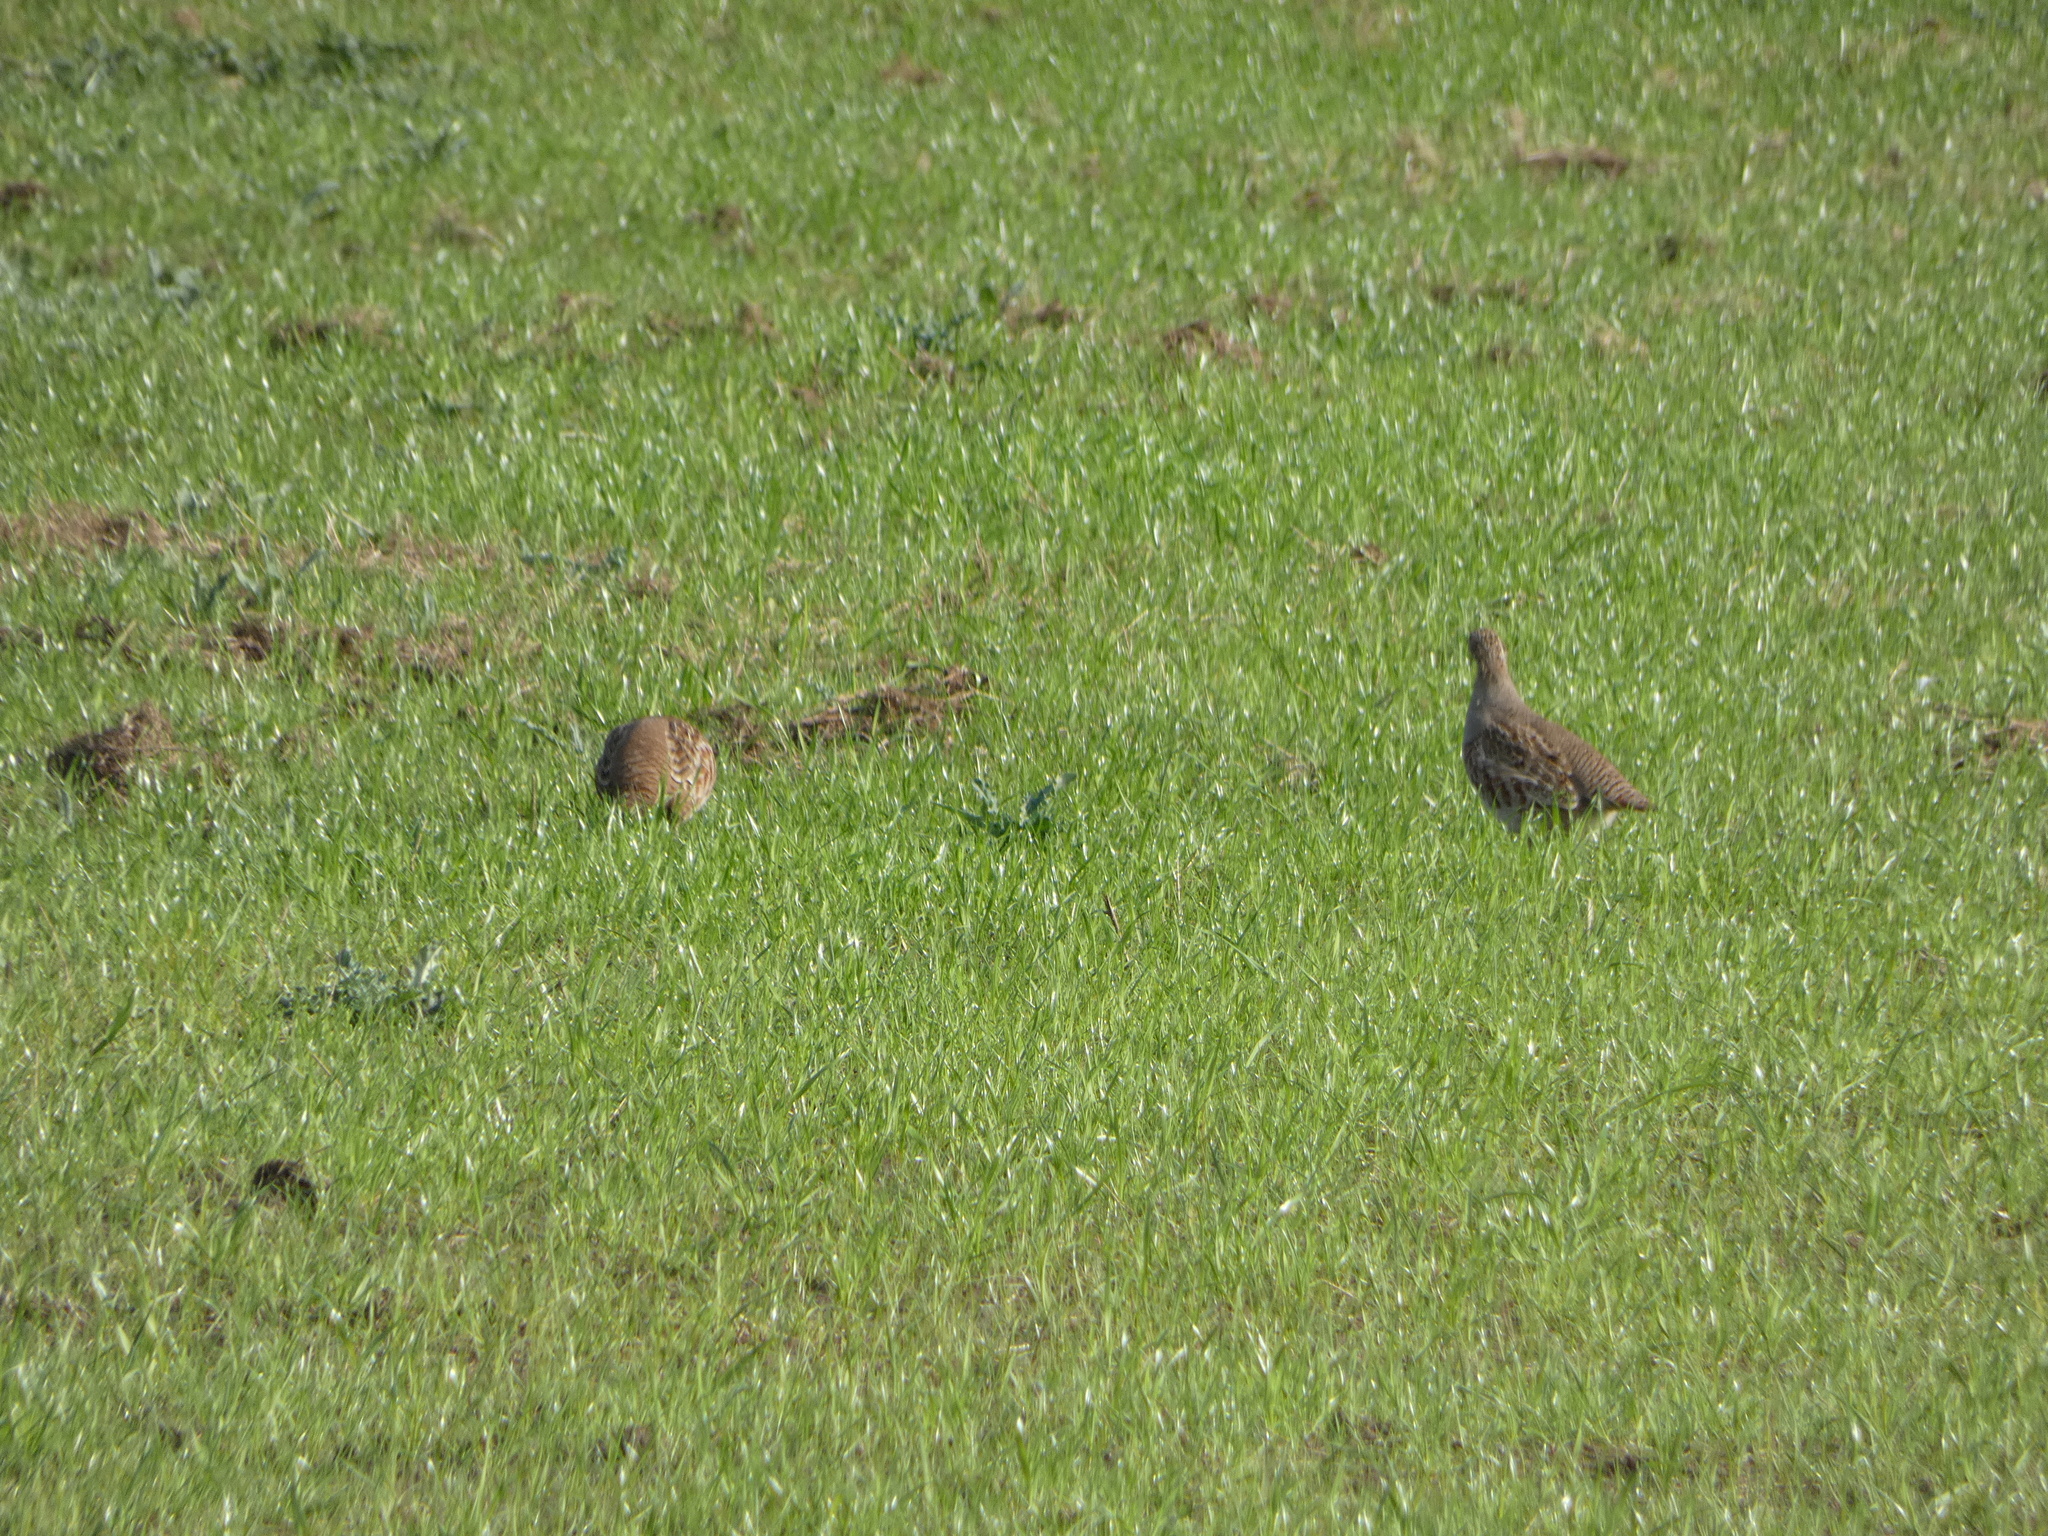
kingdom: Animalia
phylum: Chordata
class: Aves
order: Galliformes
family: Phasianidae
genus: Perdix
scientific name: Perdix perdix
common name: Grey partridge
